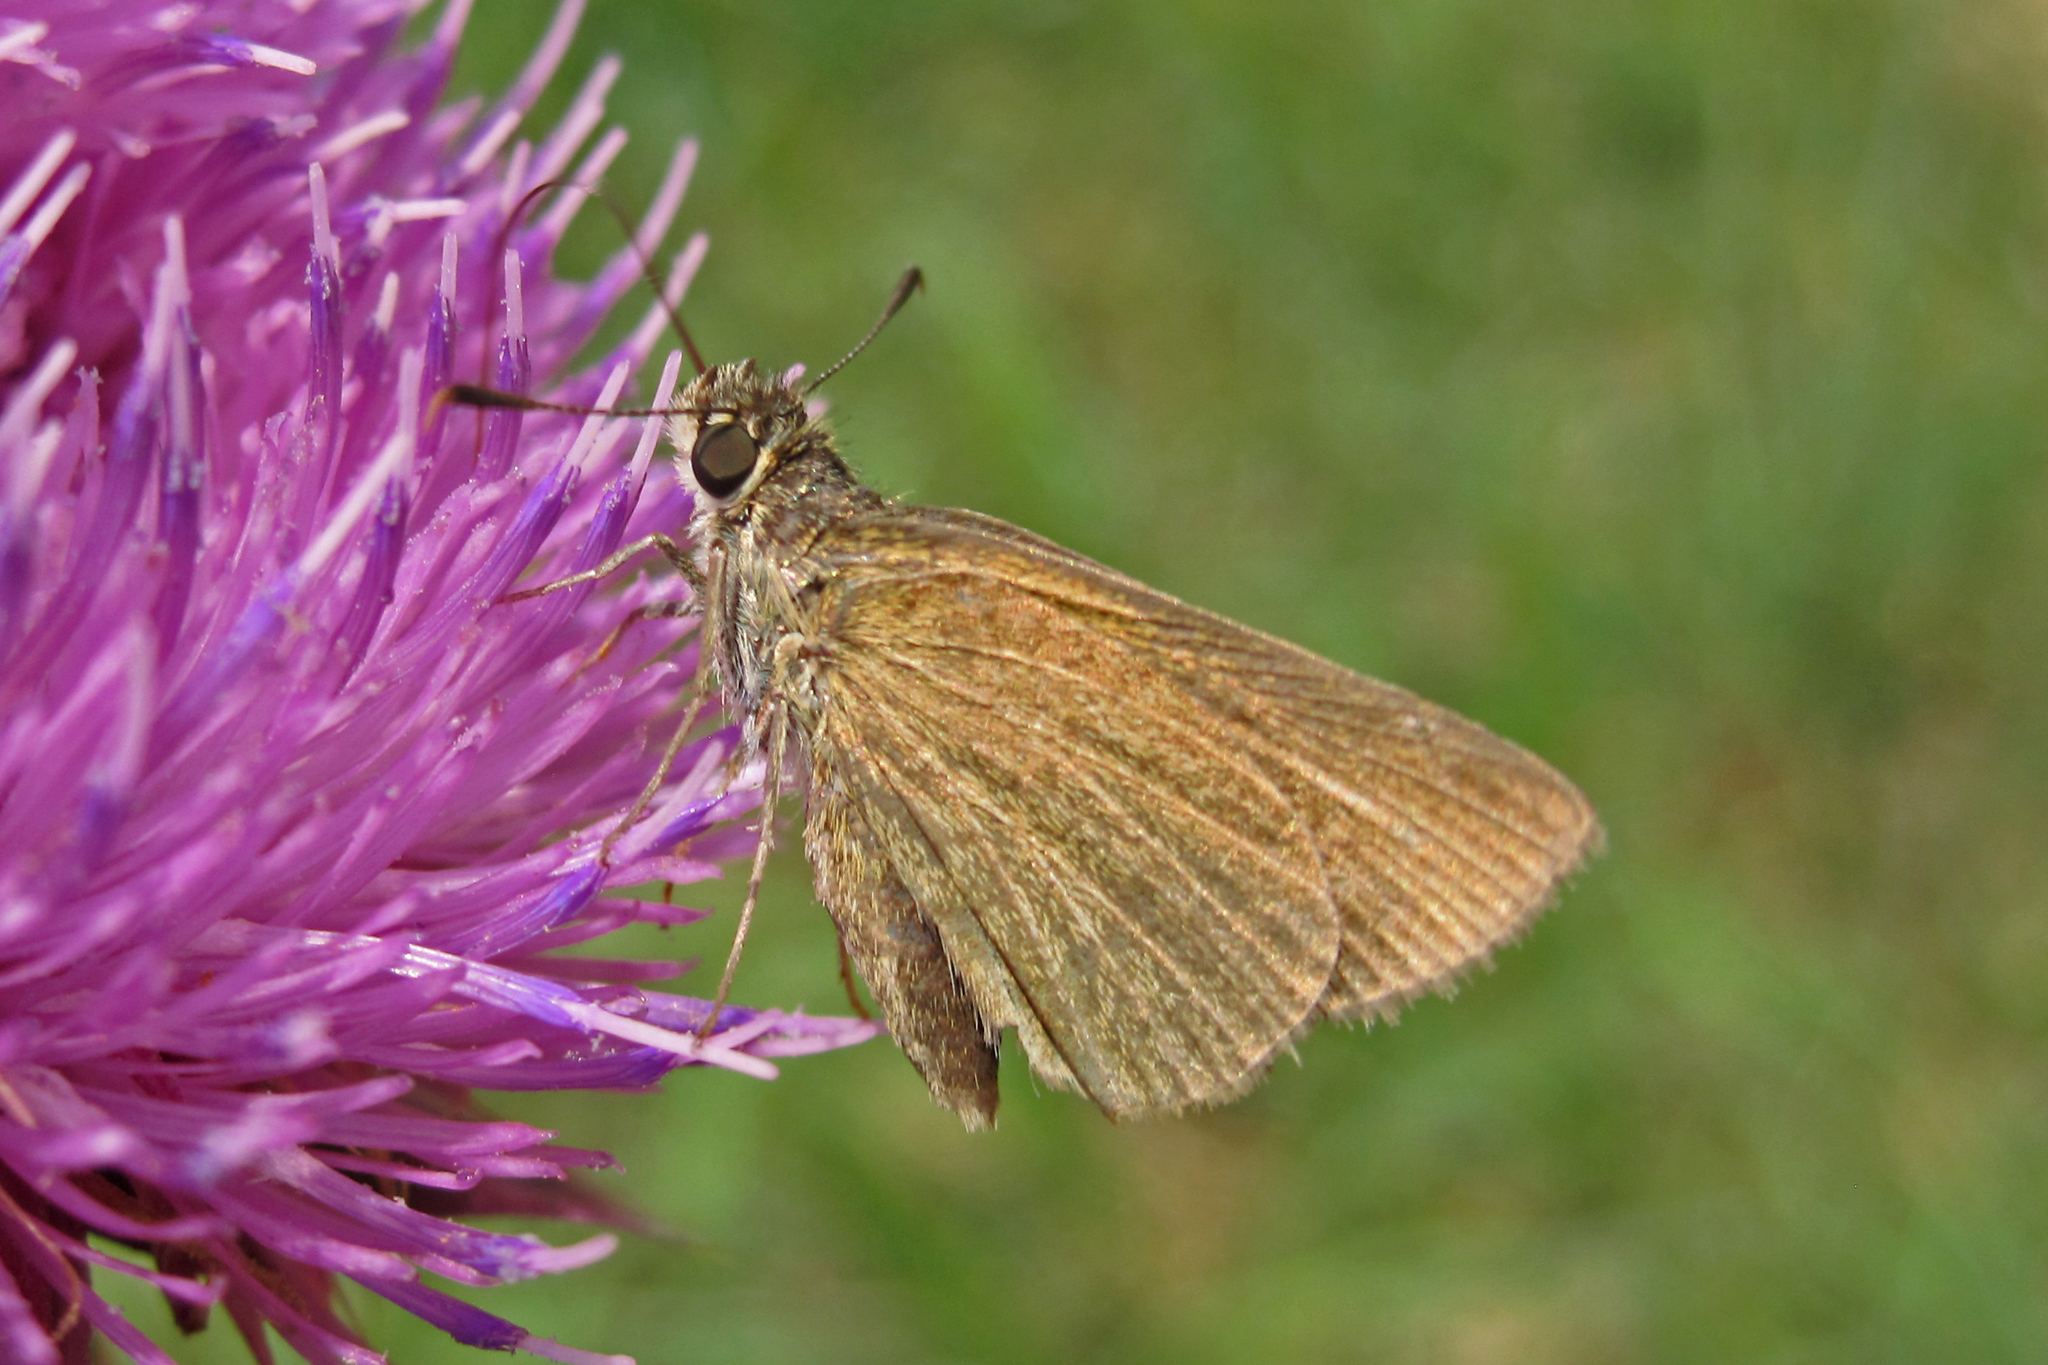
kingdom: Animalia
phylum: Arthropoda
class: Insecta
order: Lepidoptera
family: Hesperiidae
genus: Nastra
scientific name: Nastra lherminier
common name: Swarthy skipper
